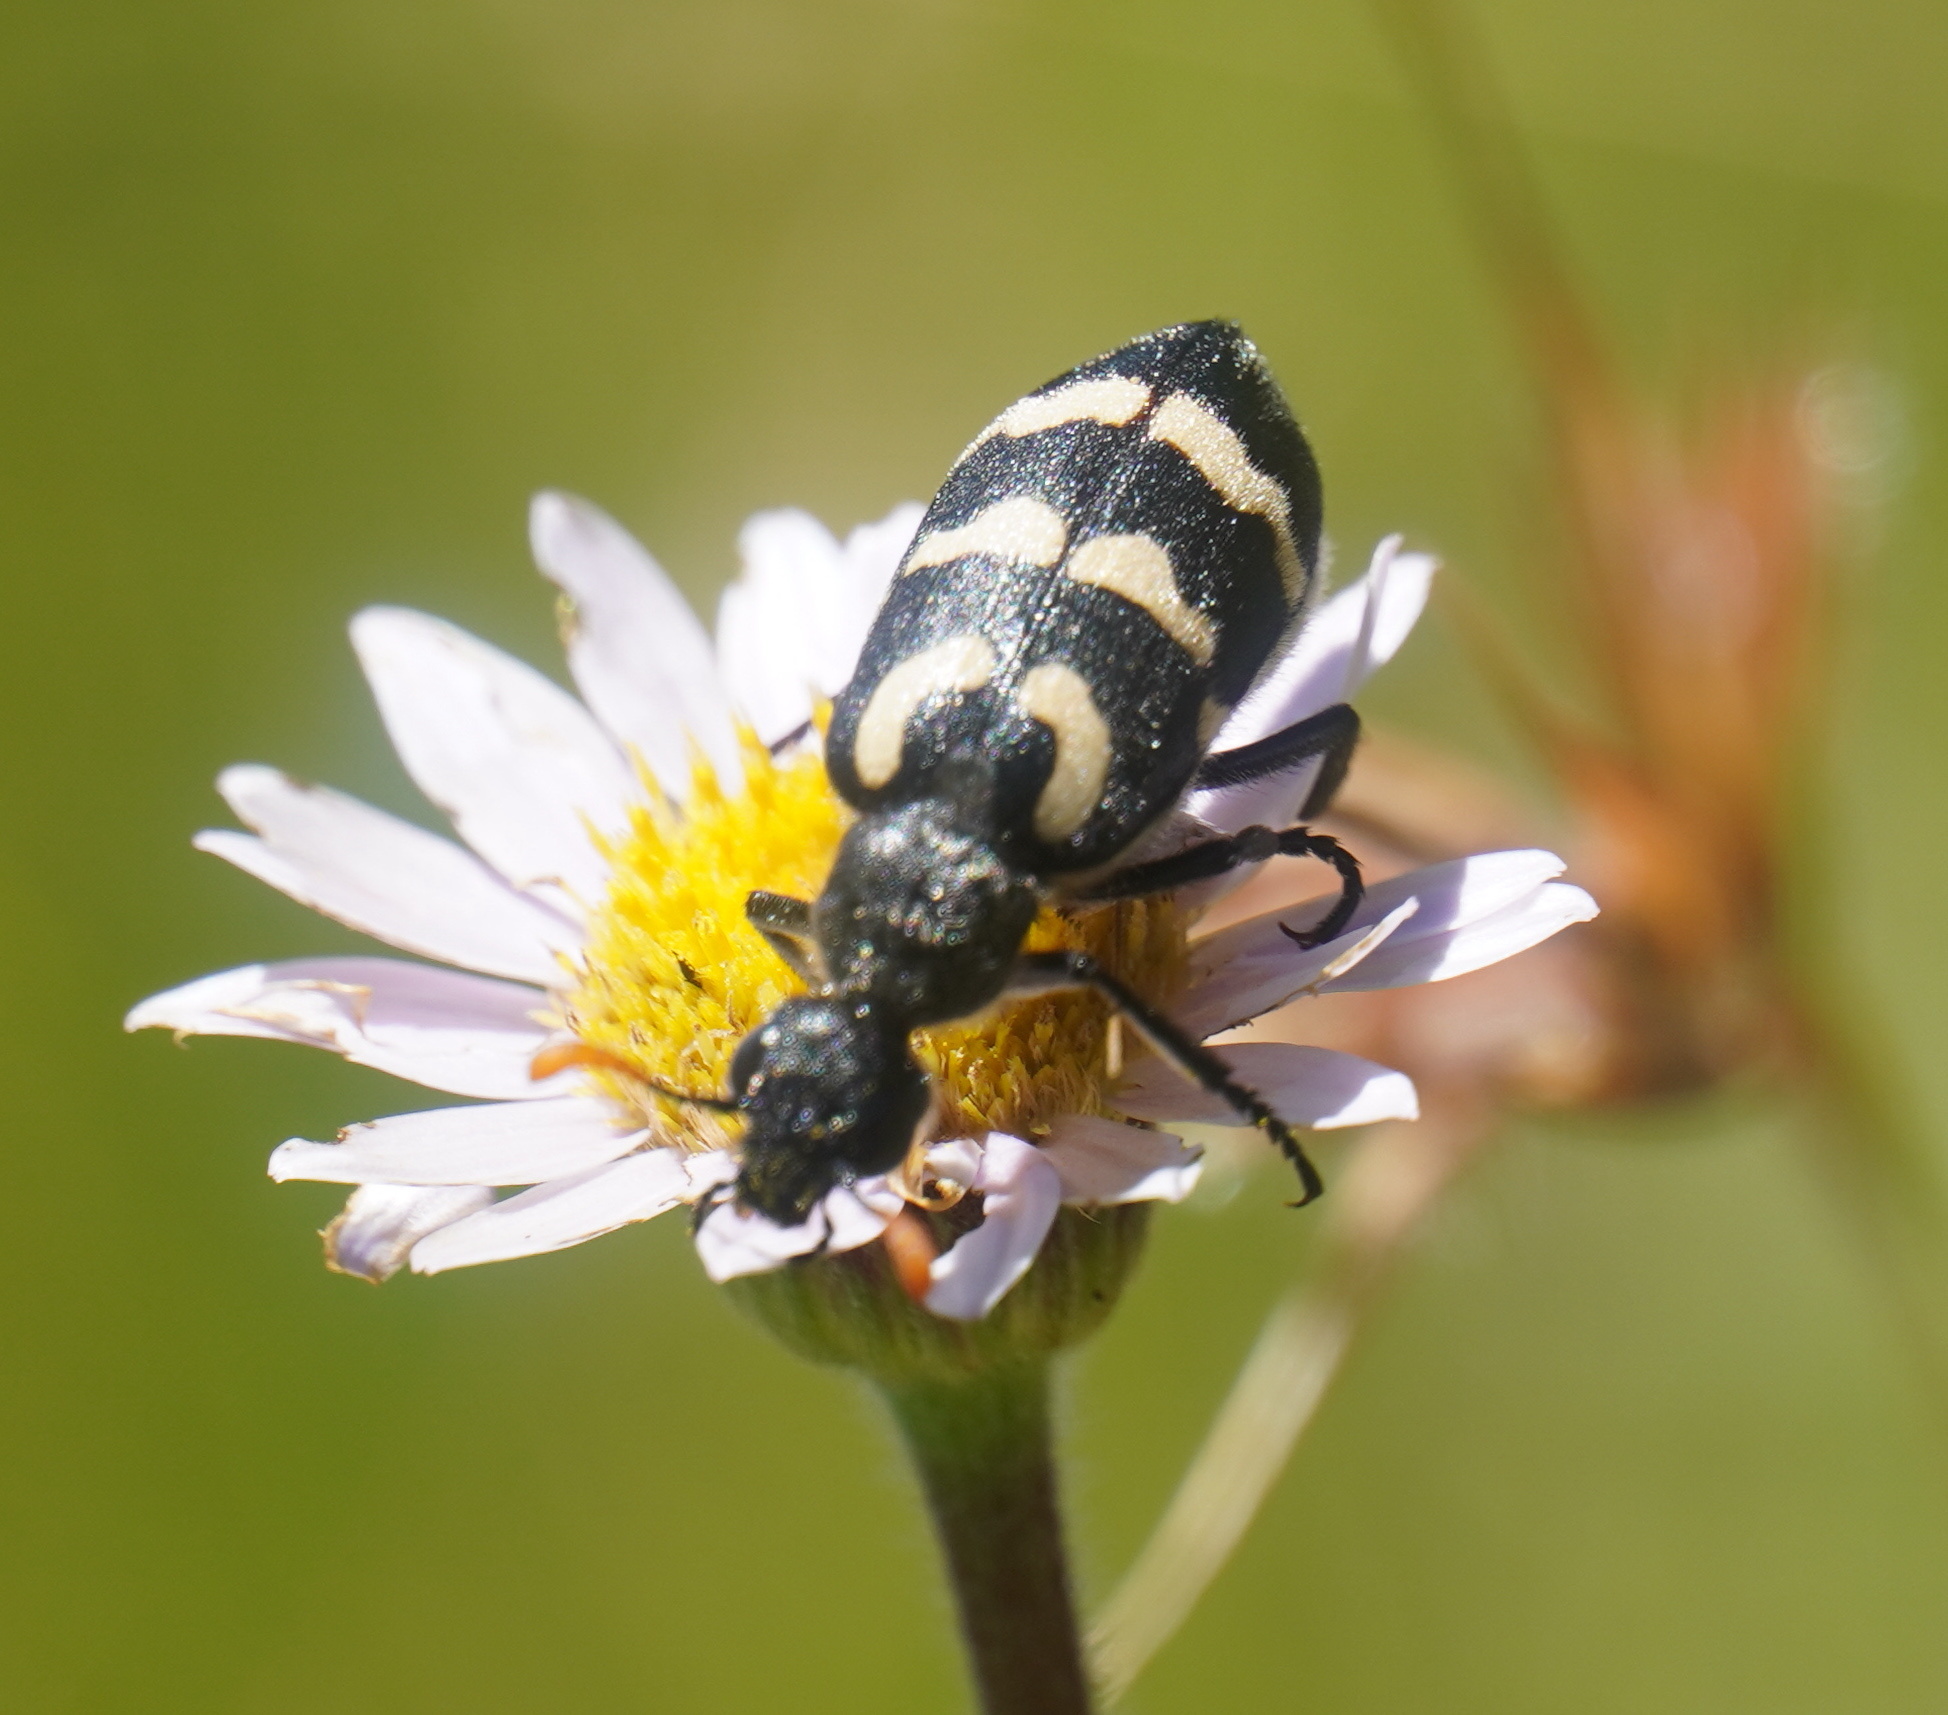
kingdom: Animalia
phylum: Arthropoda
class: Insecta
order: Coleoptera
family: Meloidae
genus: Meloe
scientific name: Meloe lunata
